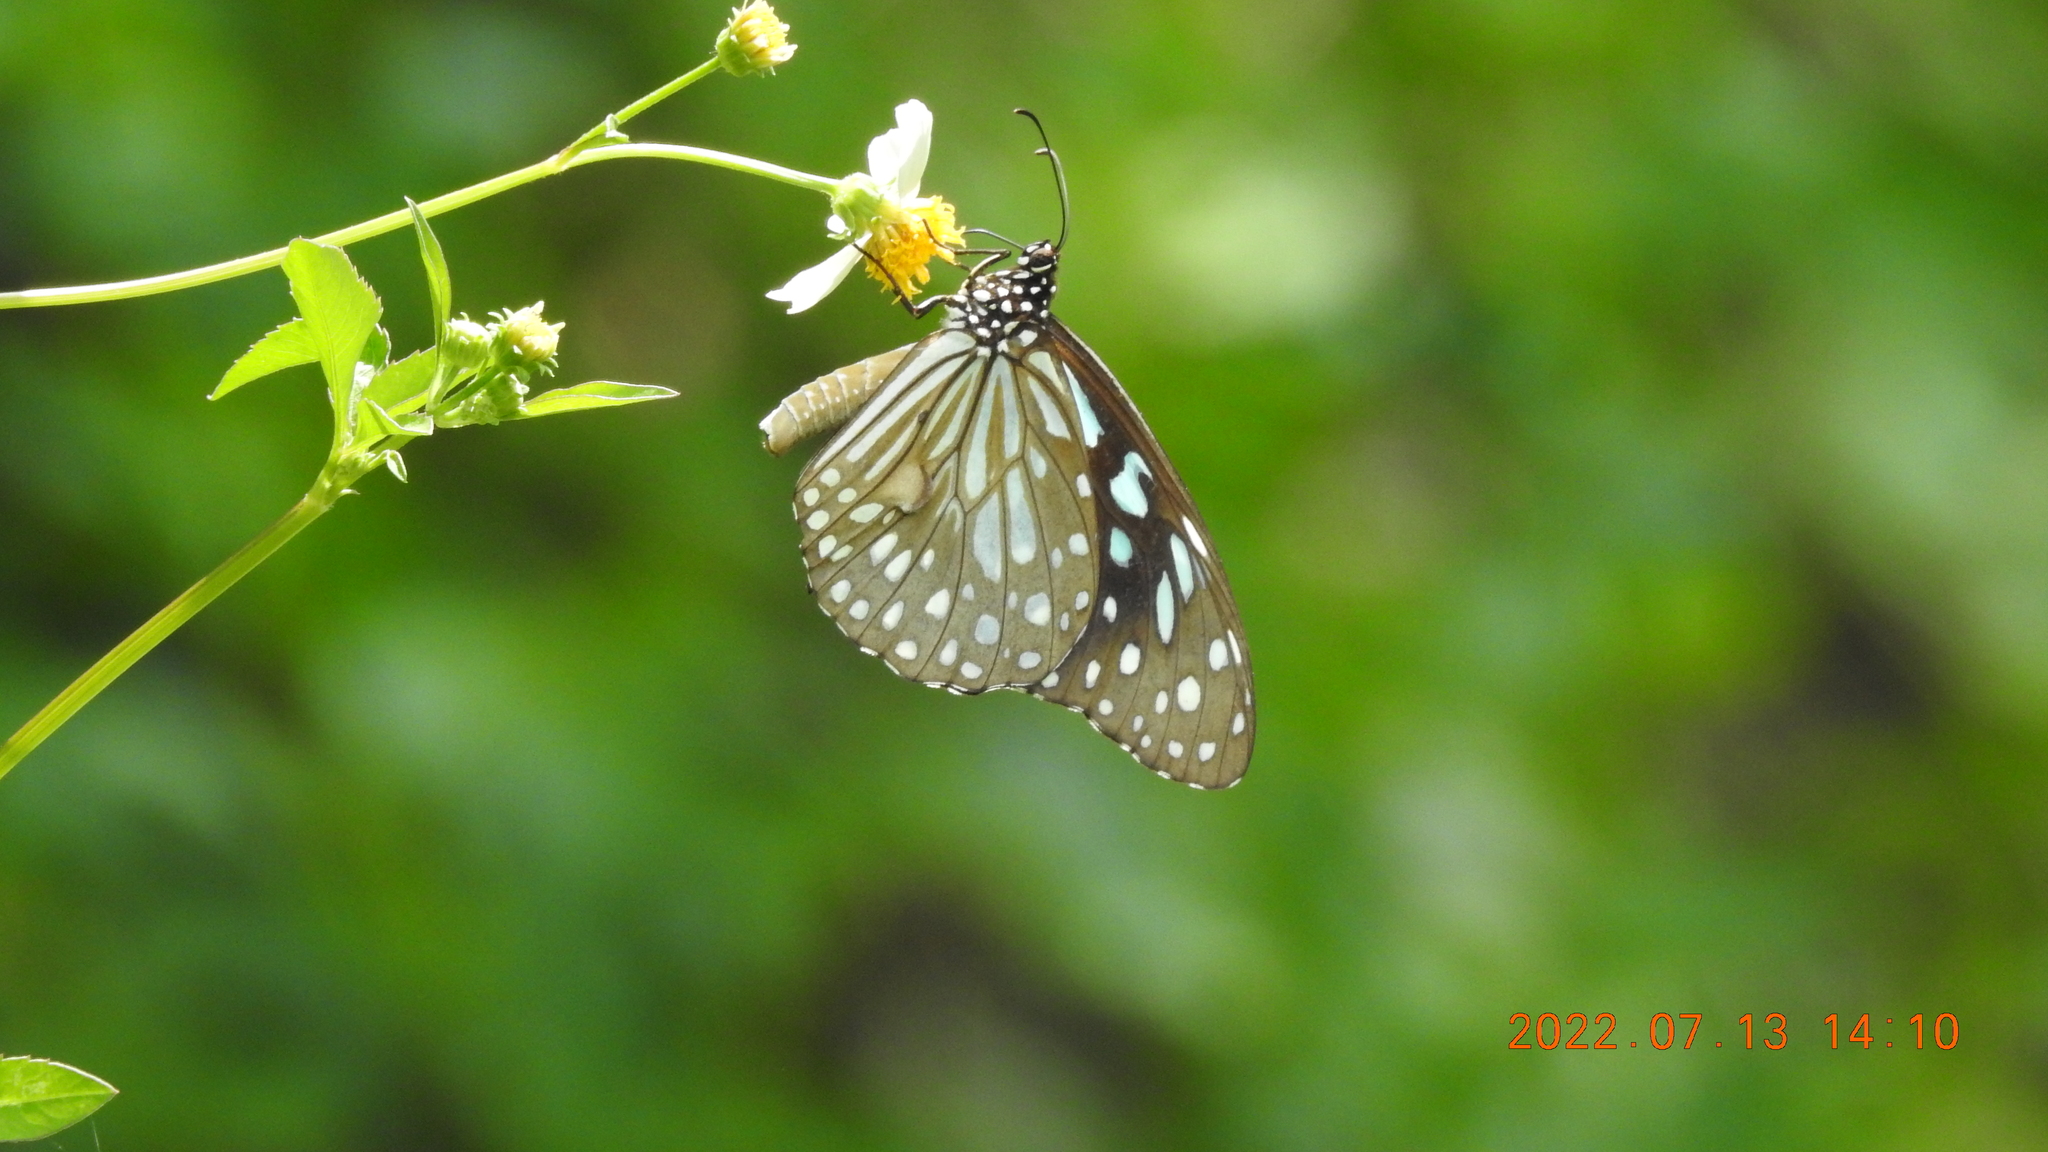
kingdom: Animalia
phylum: Arthropoda
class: Insecta
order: Lepidoptera
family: Nymphalidae
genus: Tirumala
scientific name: Tirumala limniace
